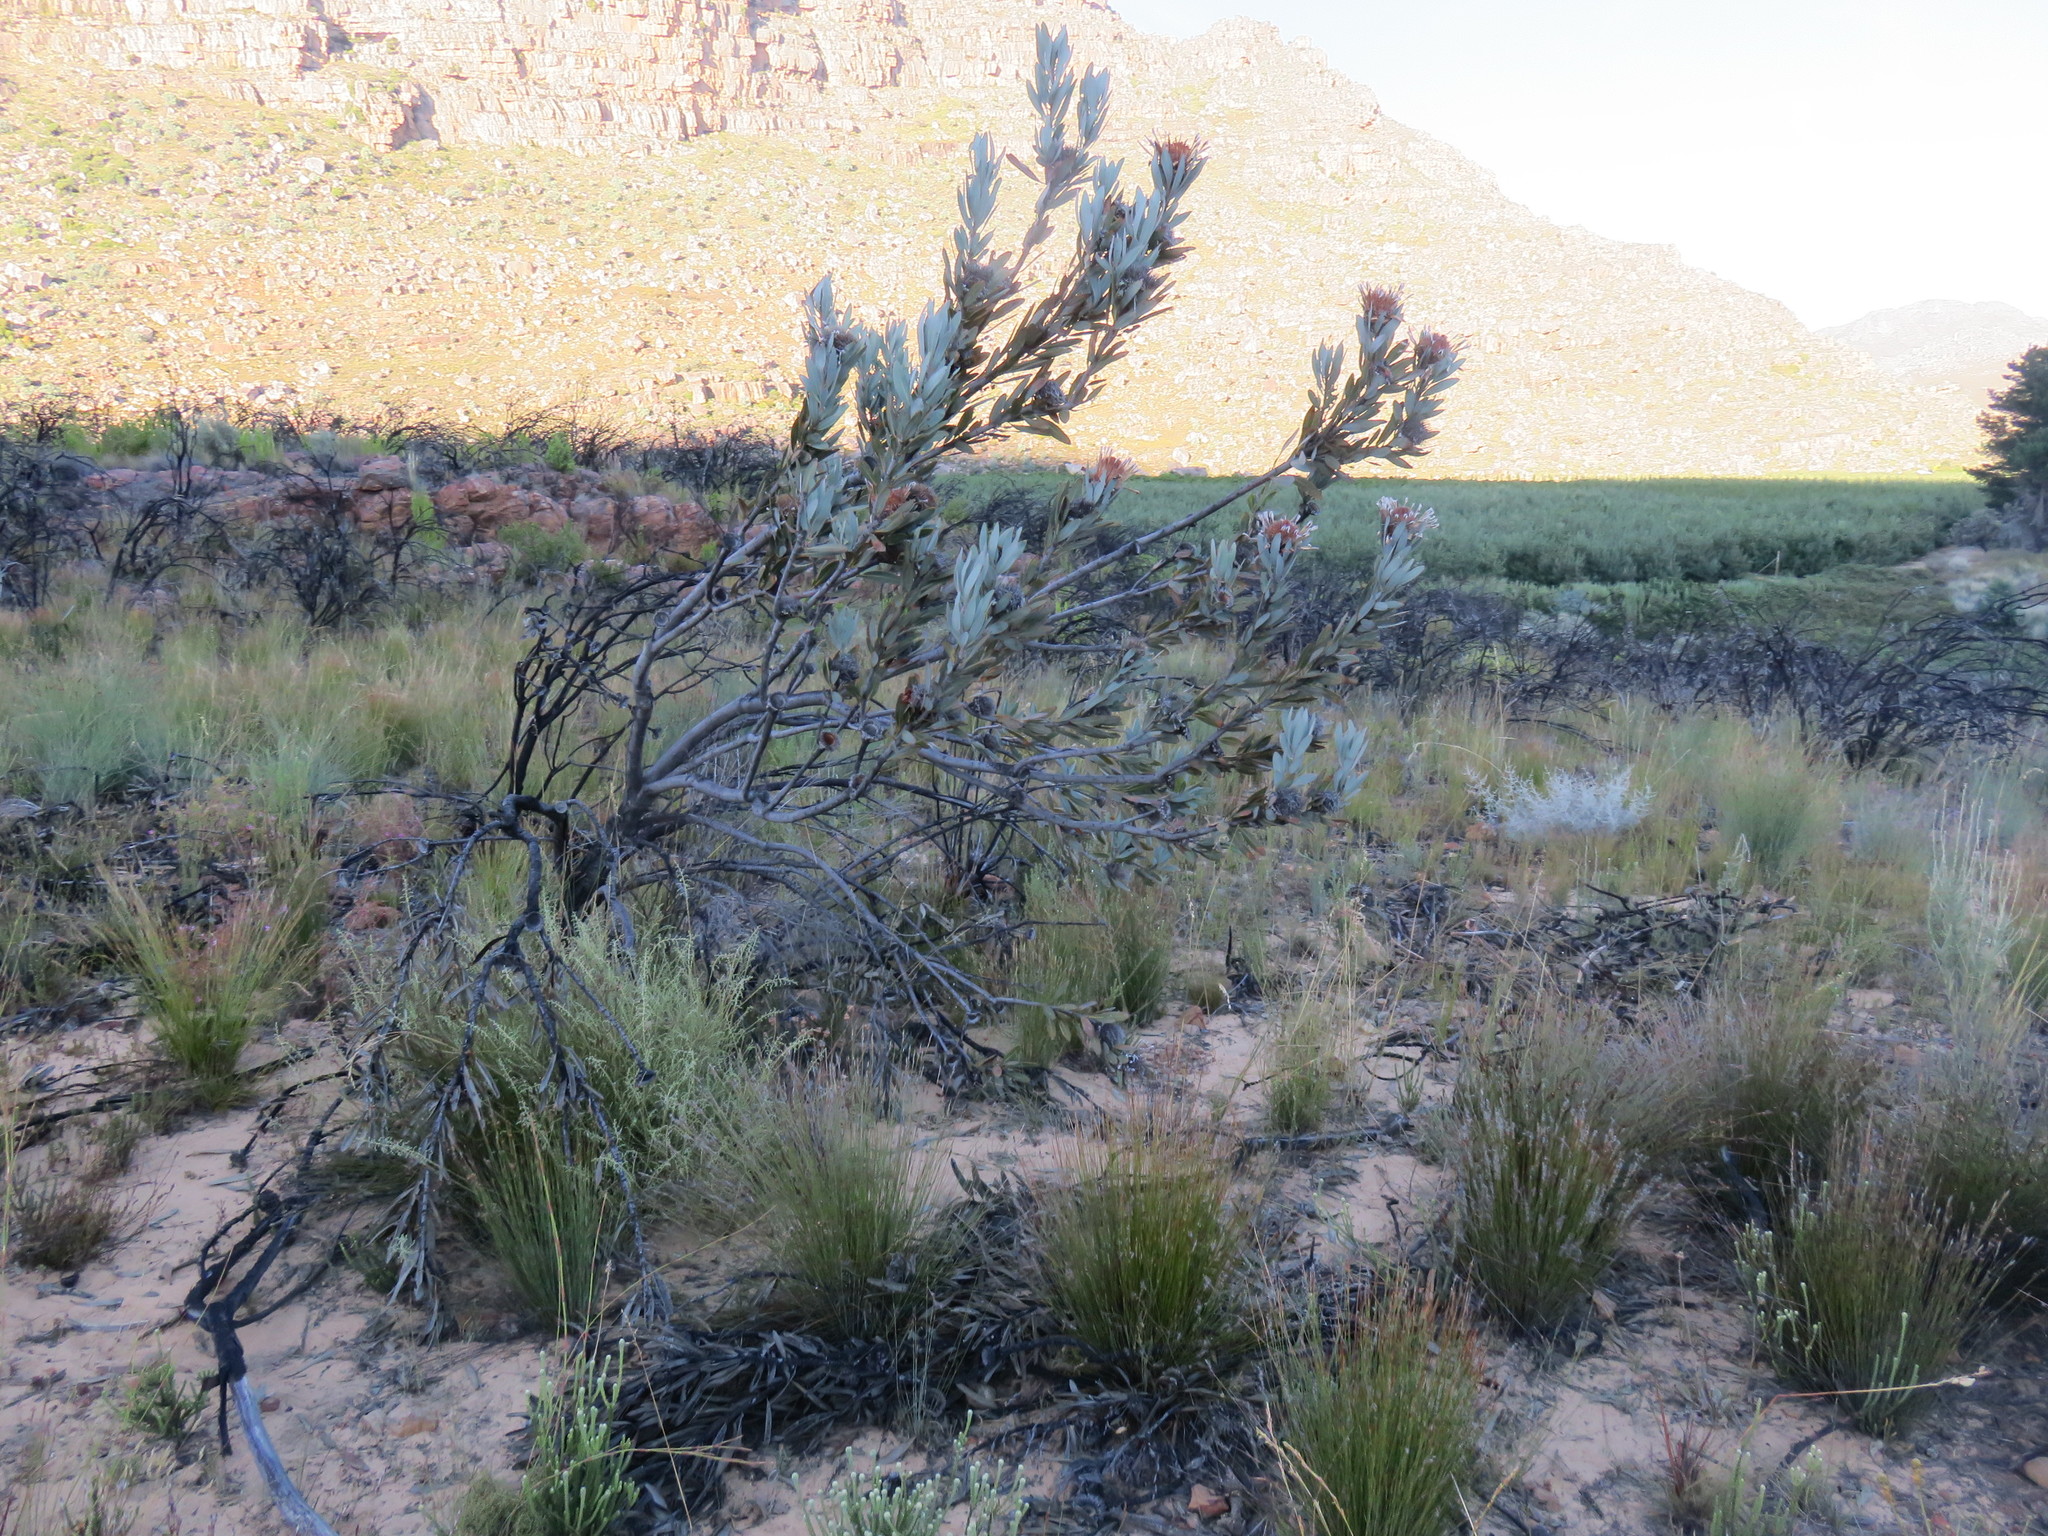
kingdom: Plantae
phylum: Tracheophyta
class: Magnoliopsida
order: Proteales
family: Proteaceae
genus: Protea
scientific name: Protea laurifolia
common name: Grey-leaf sugarbsh
